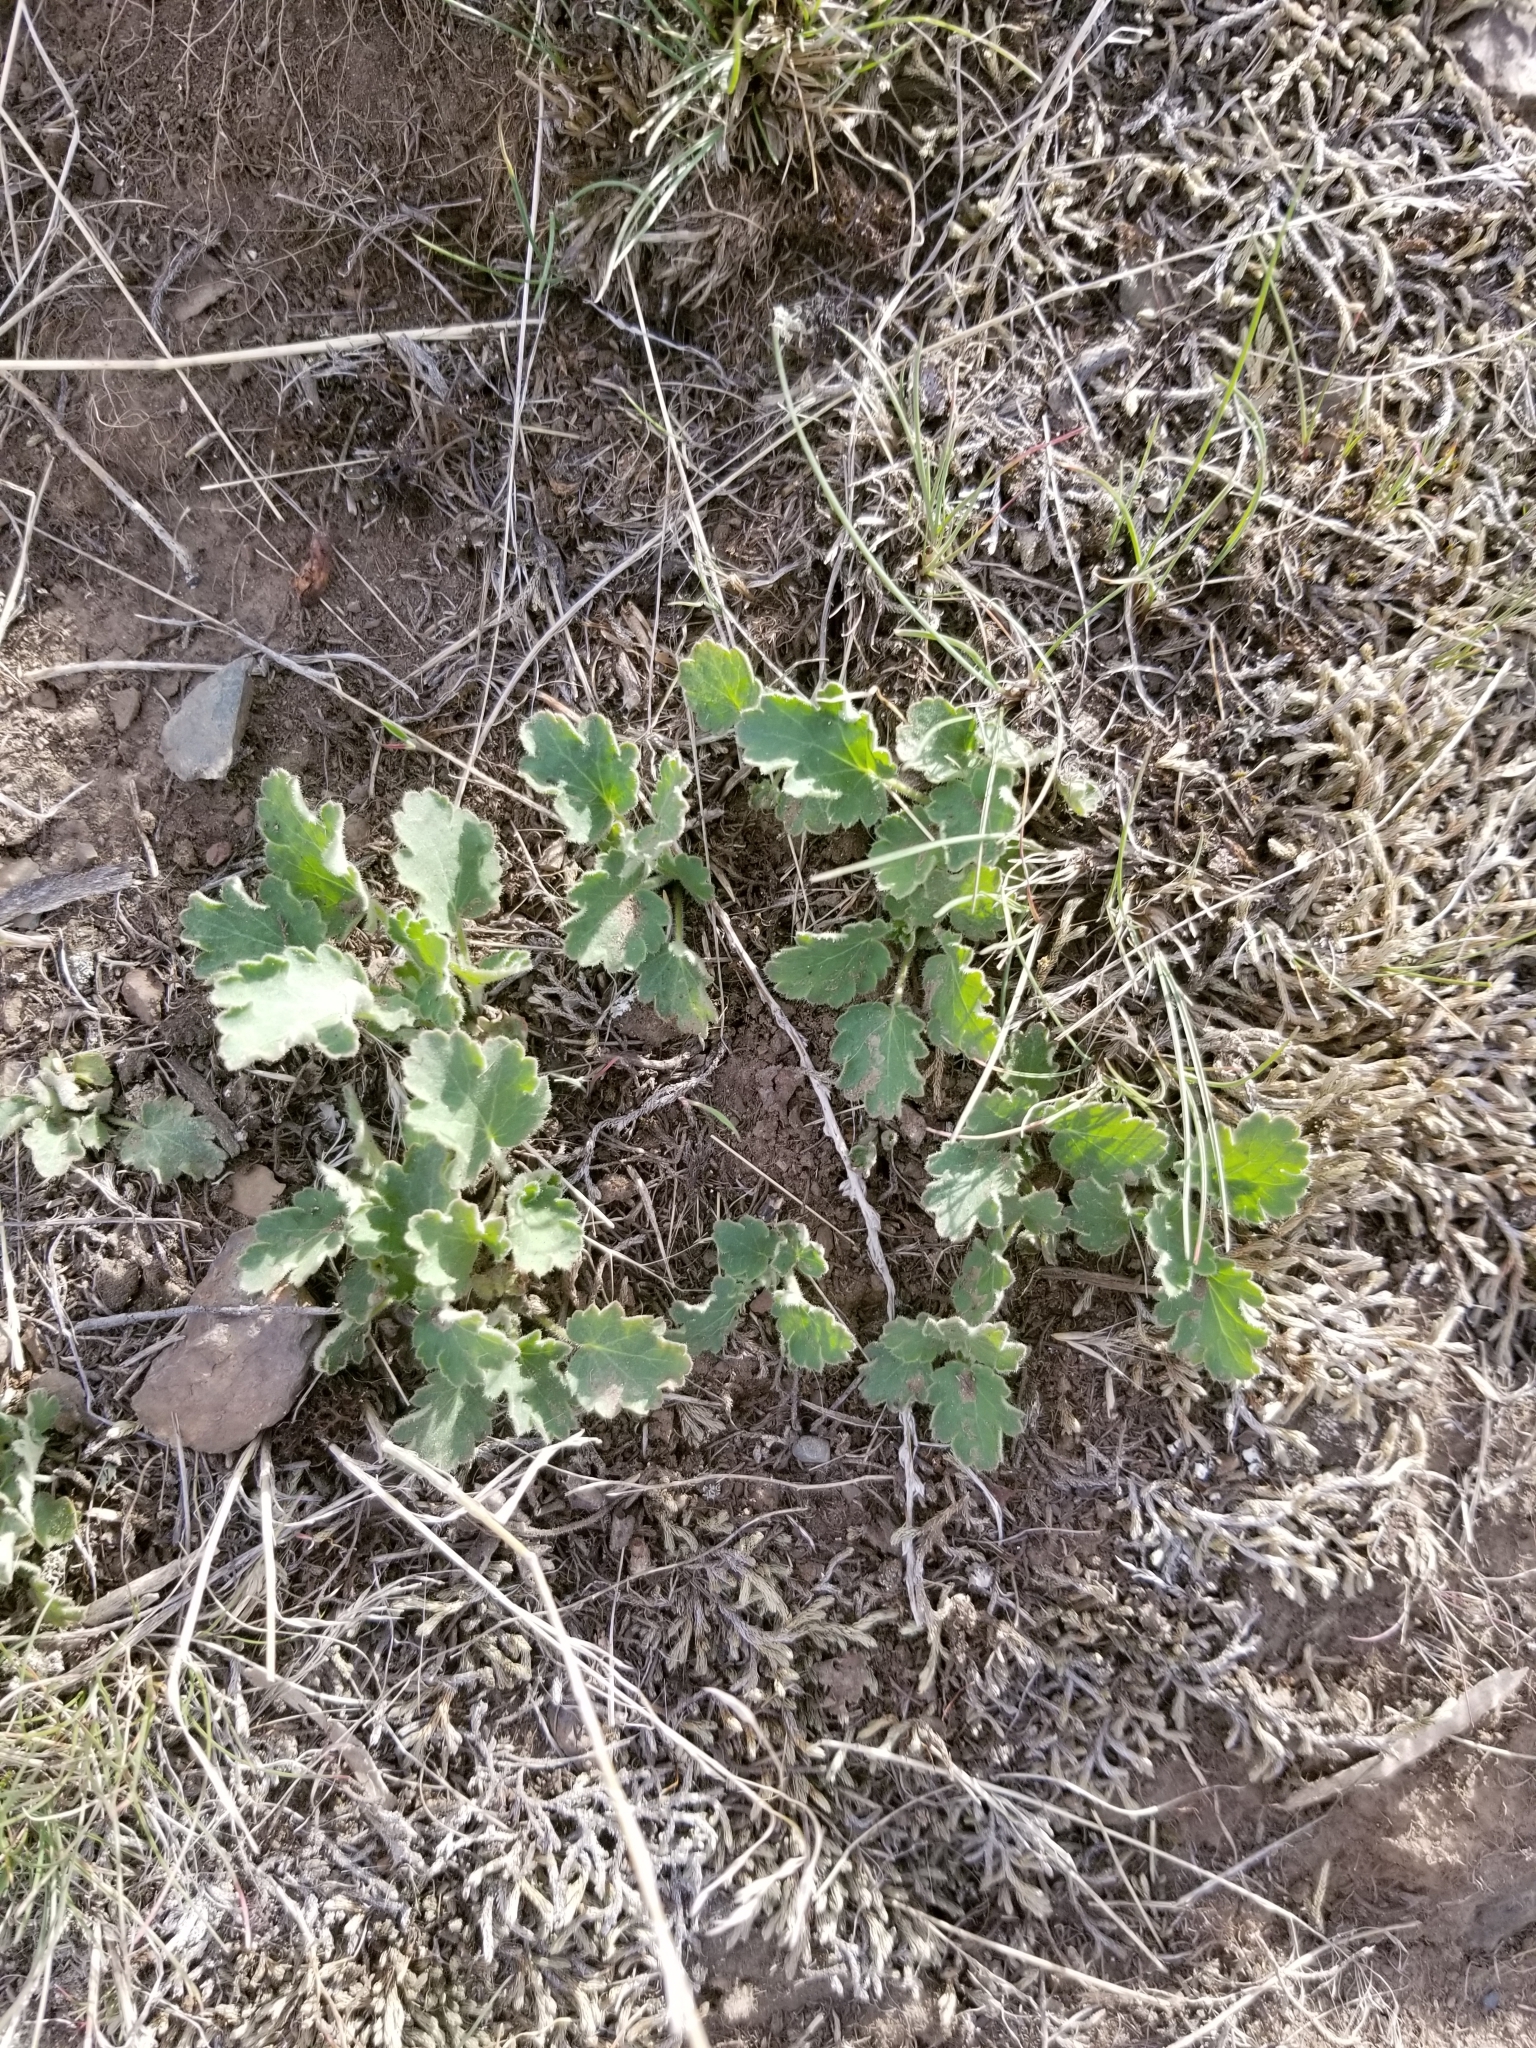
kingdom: Plantae
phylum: Tracheophyta
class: Magnoliopsida
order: Saxifragales
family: Saxifragaceae
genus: Heuchera
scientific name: Heuchera cylindrica
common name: Mat alumroot
